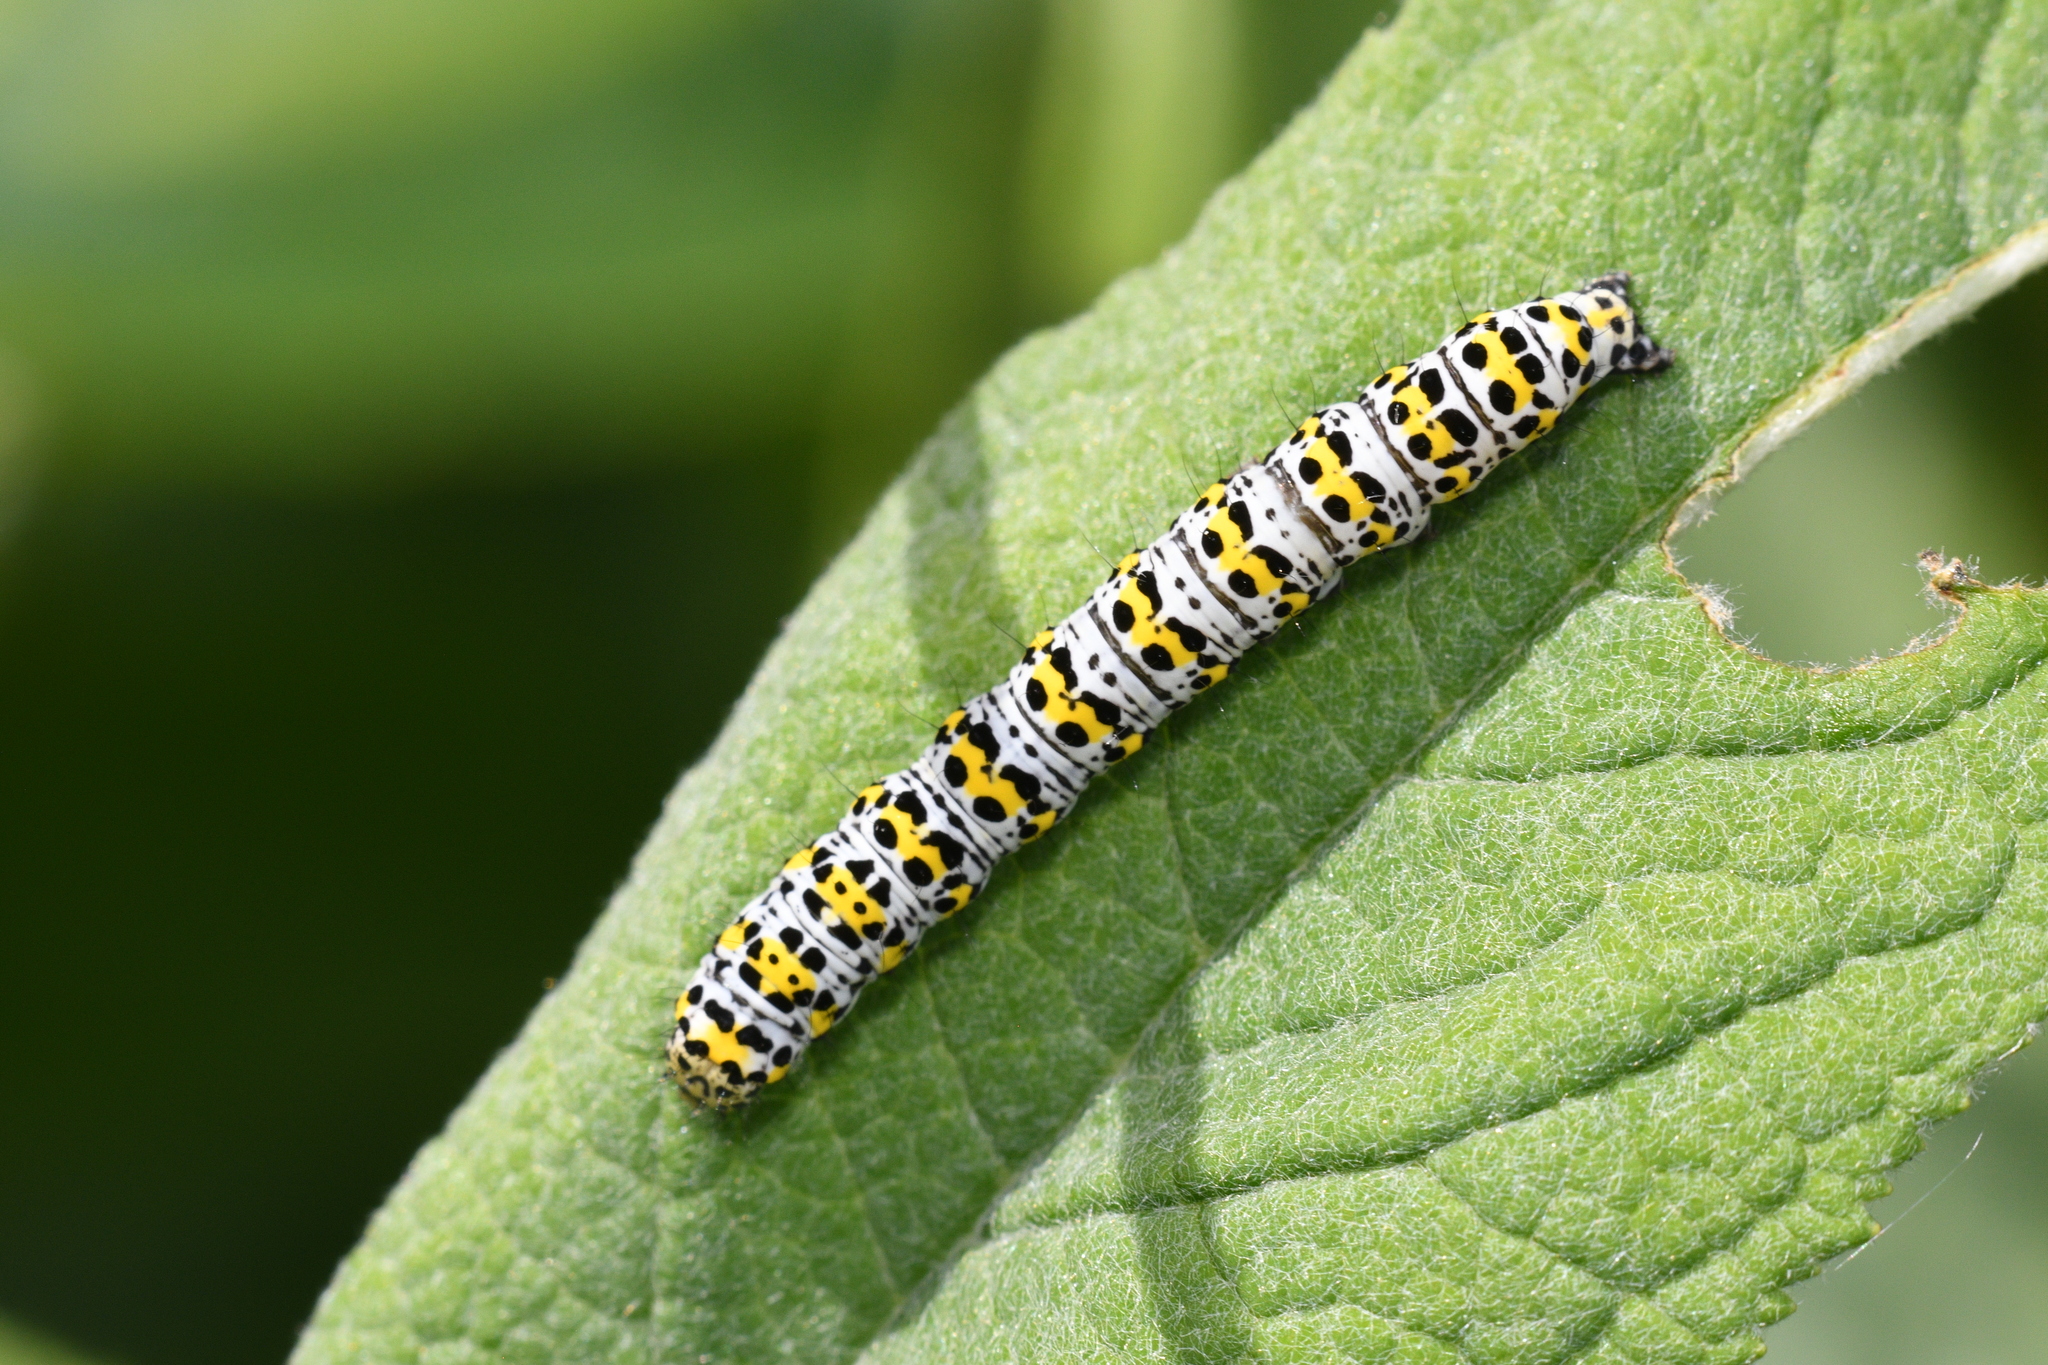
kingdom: Animalia
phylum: Arthropoda
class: Insecta
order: Lepidoptera
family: Noctuidae
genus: Cucullia
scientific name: Cucullia verbasci
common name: Mullein
